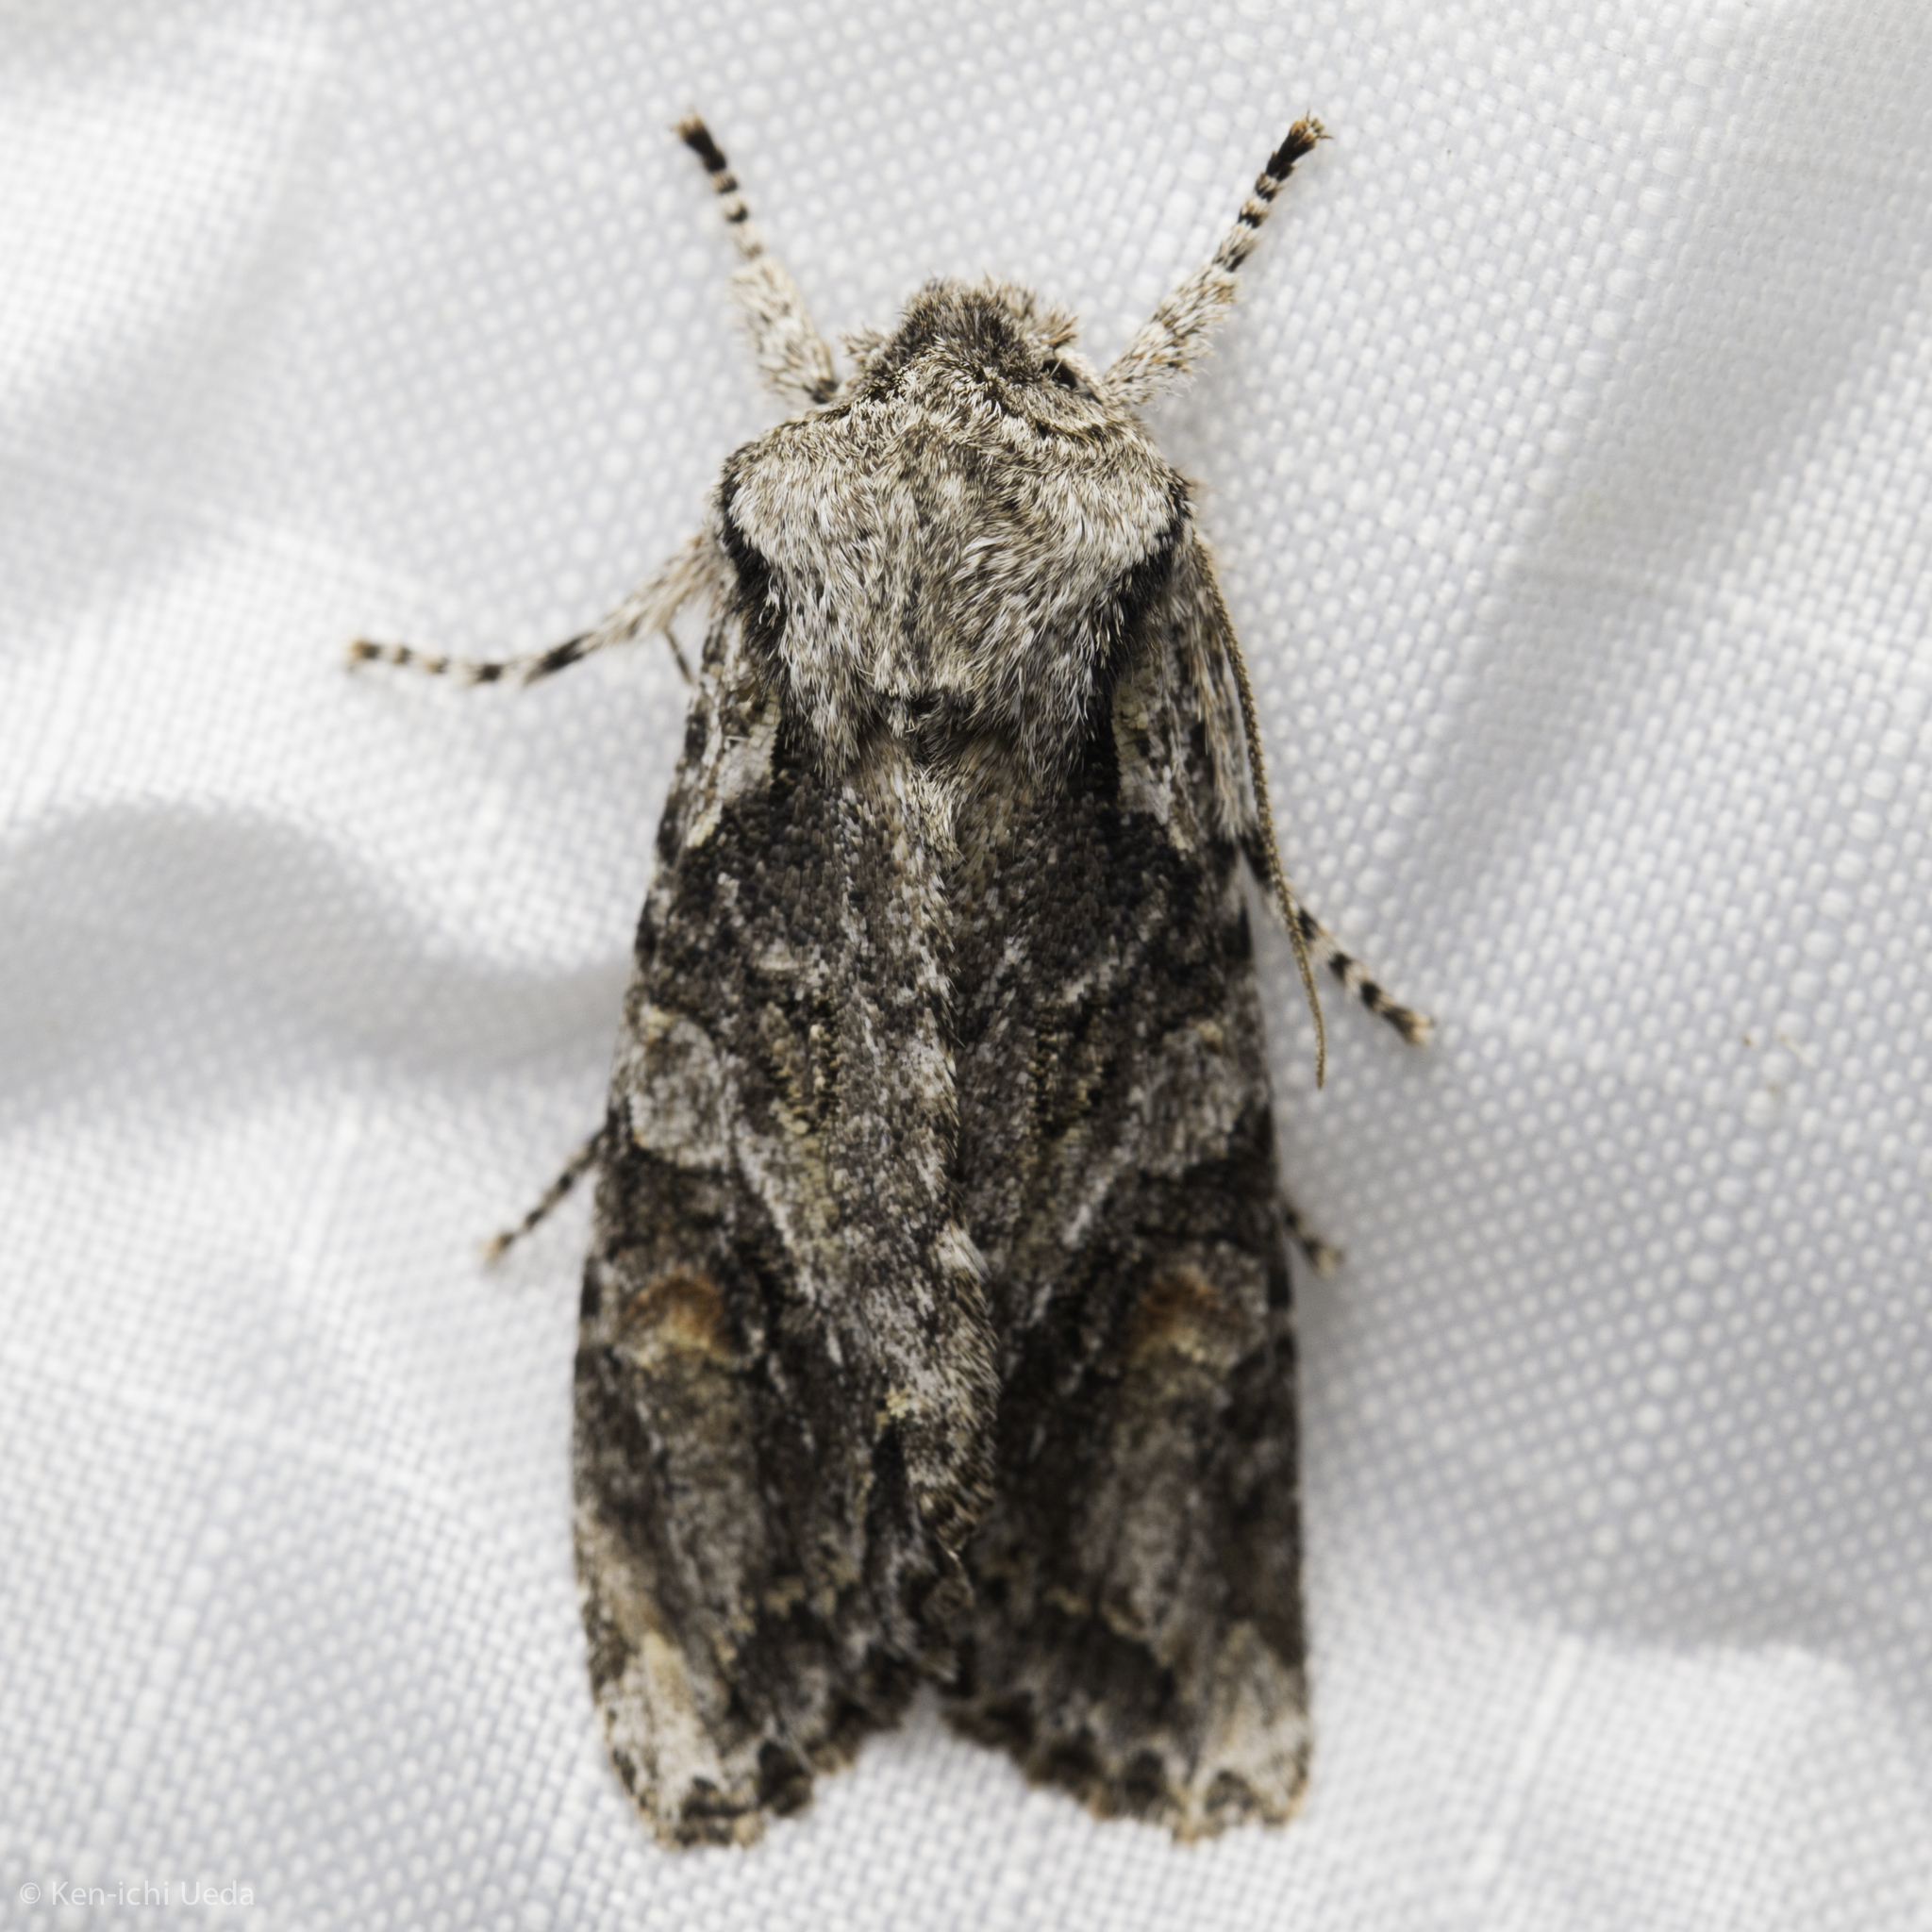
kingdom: Animalia
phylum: Arthropoda
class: Insecta
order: Lepidoptera
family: Noctuidae
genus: Egira
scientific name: Egira hiemalis
